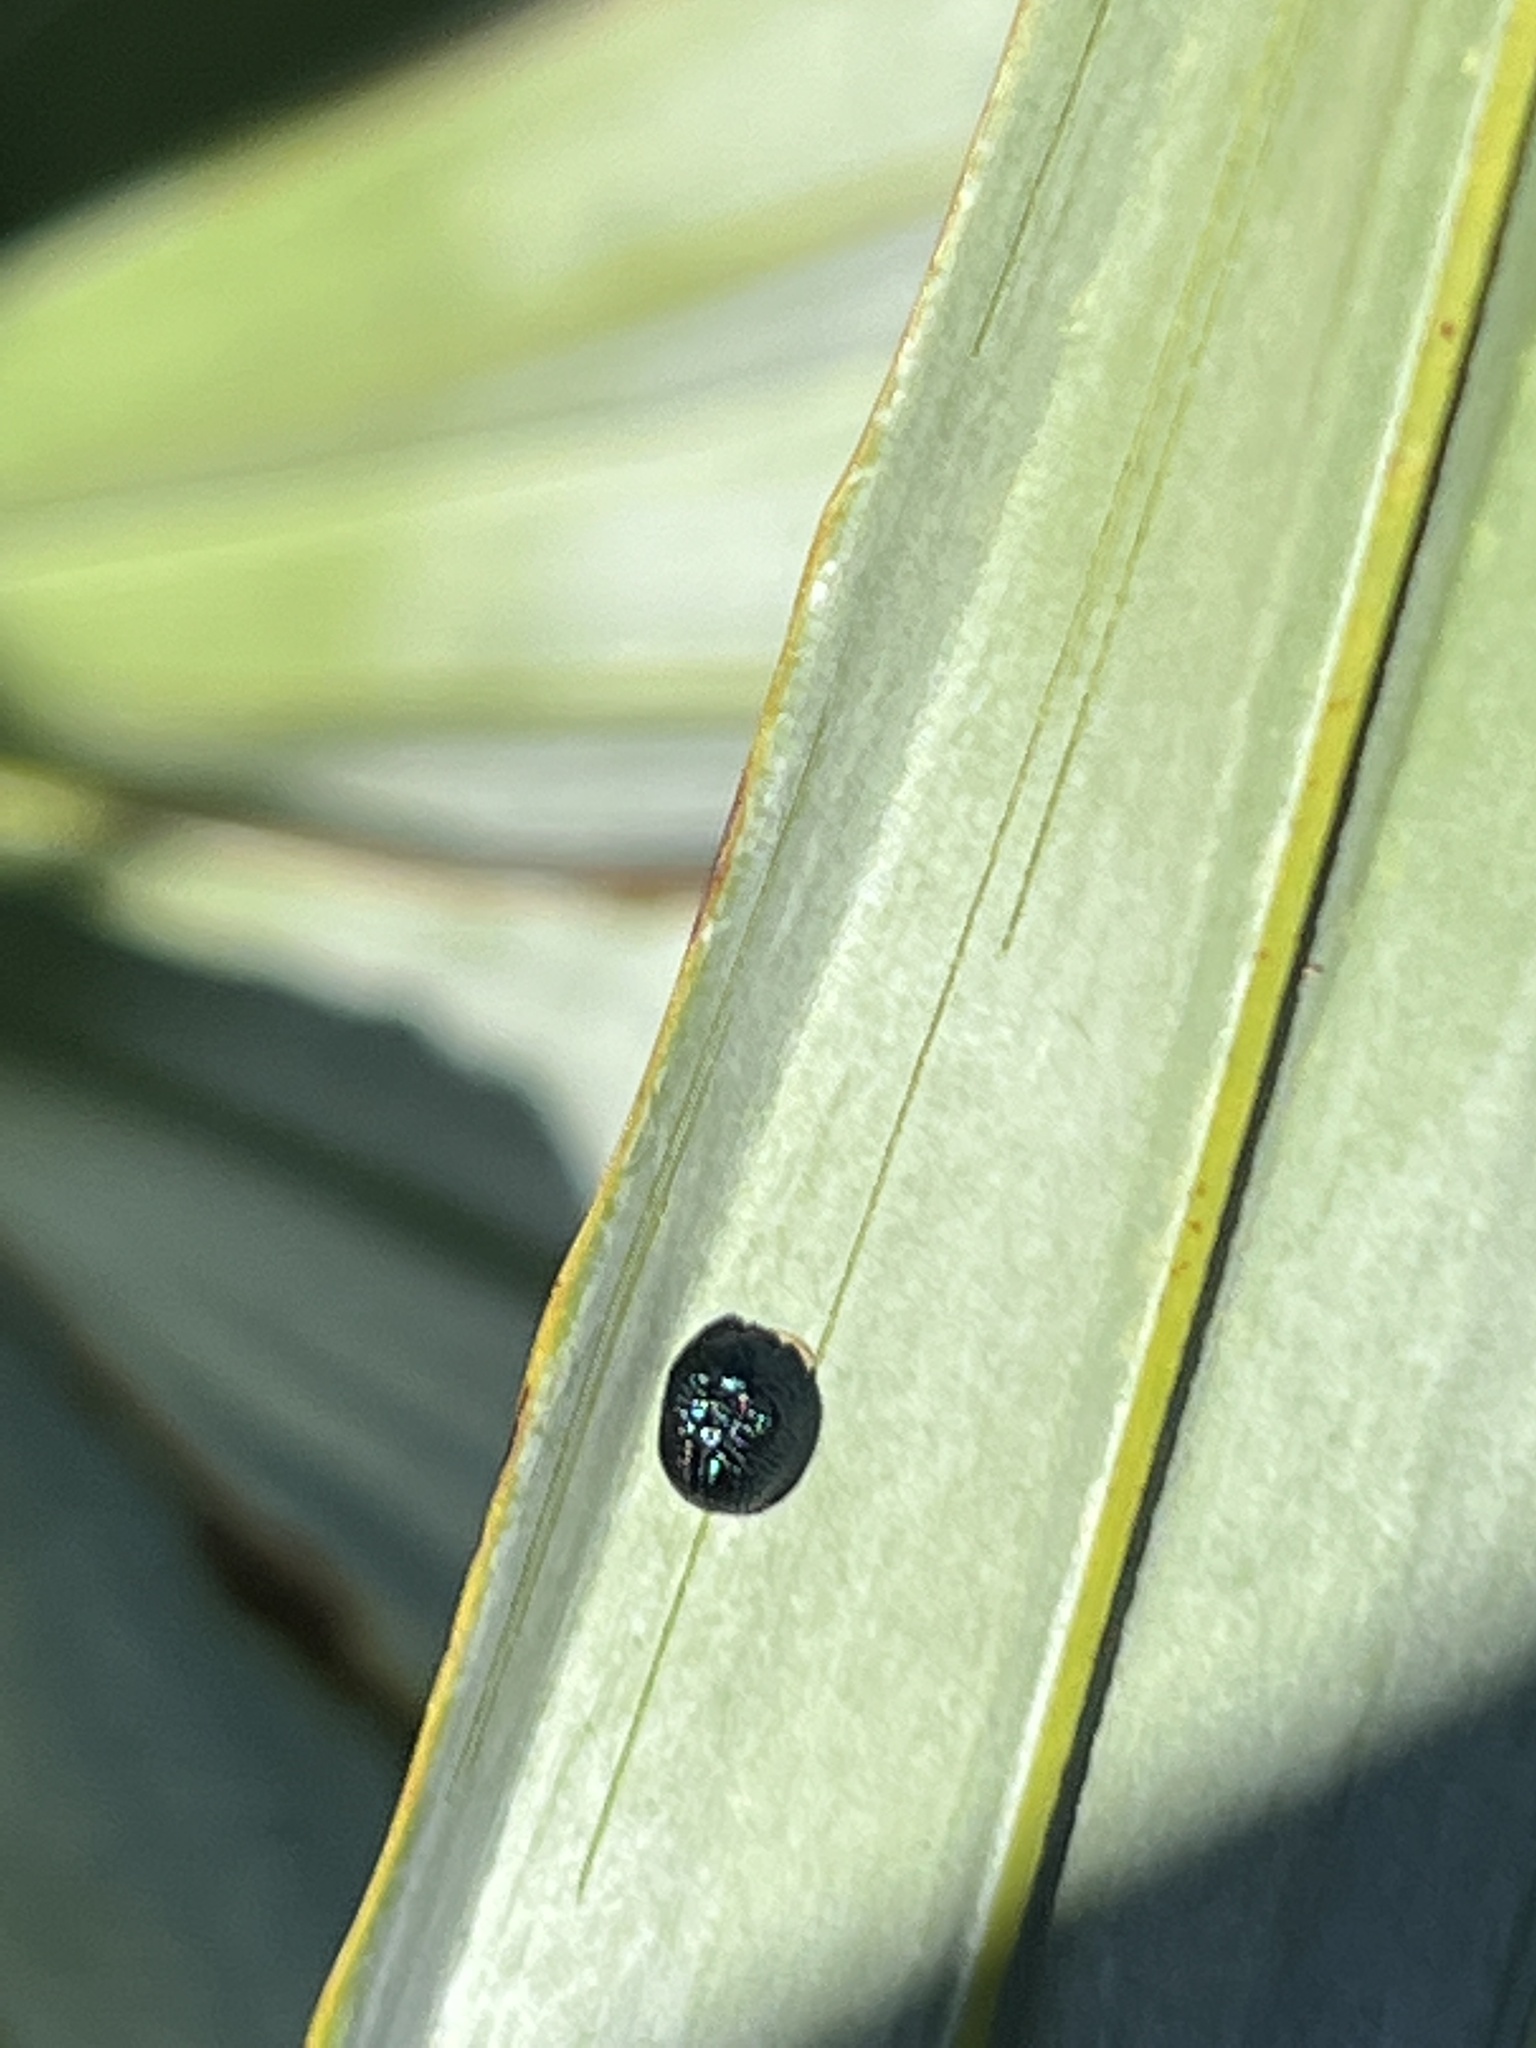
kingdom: Animalia
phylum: Arthropoda
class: Insecta
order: Coleoptera
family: Chrysomelidae
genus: Hemisphaerota
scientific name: Hemisphaerota cyanea
